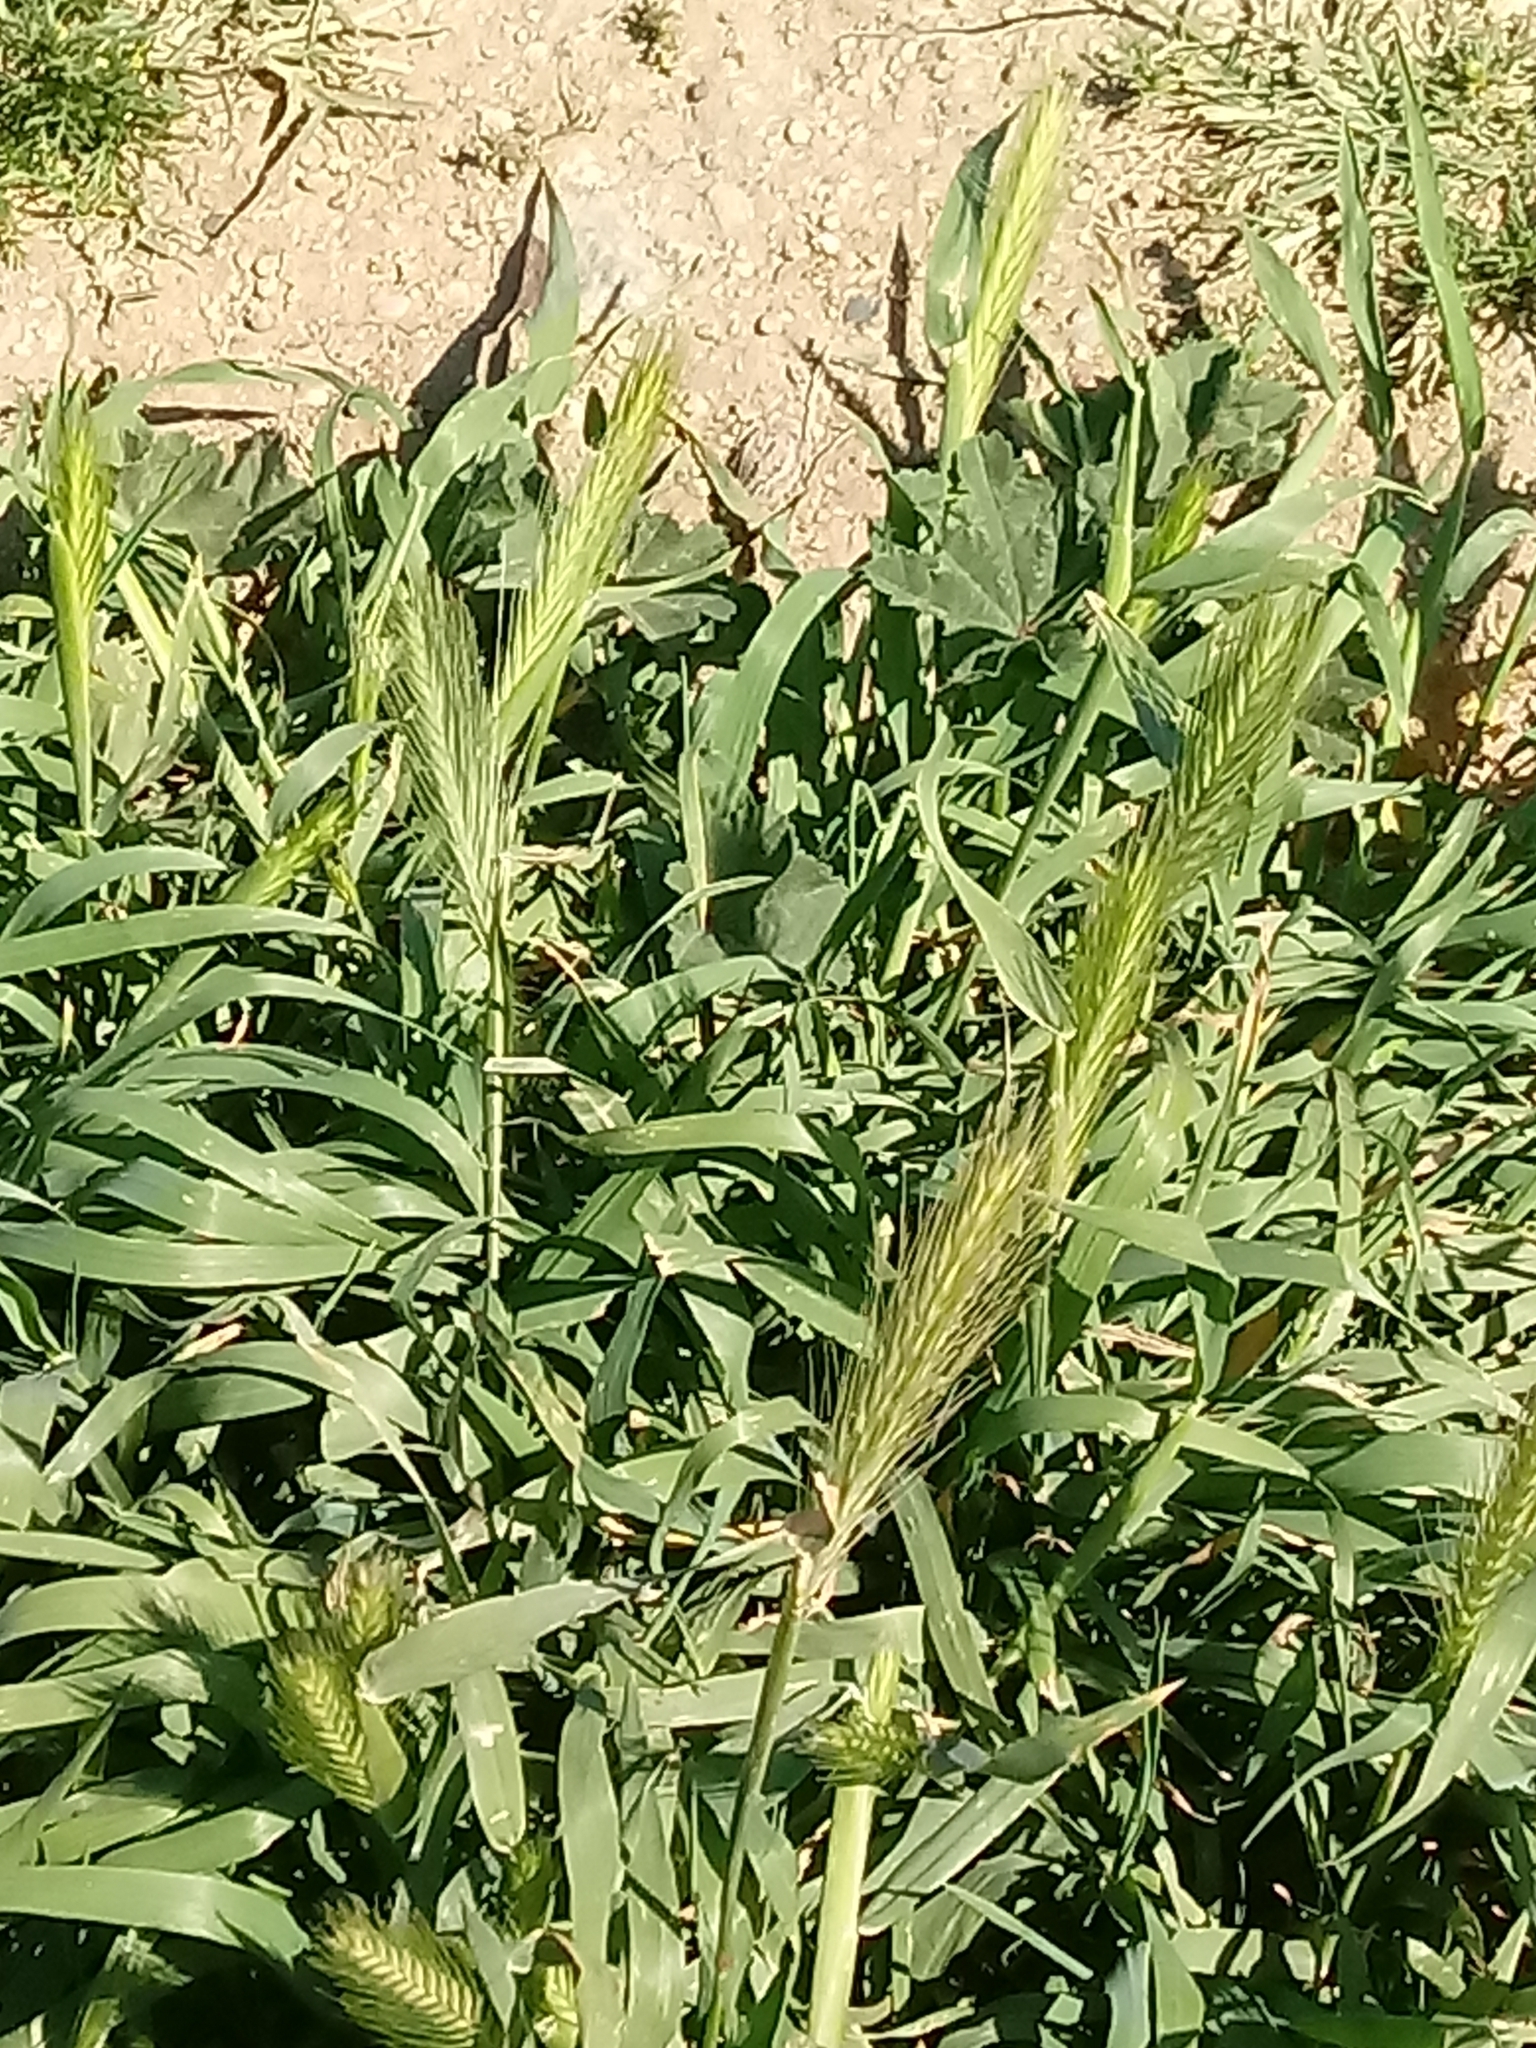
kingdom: Plantae
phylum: Tracheophyta
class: Liliopsida
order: Poales
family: Poaceae
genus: Hordeum
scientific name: Hordeum murinum
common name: Wall barley
